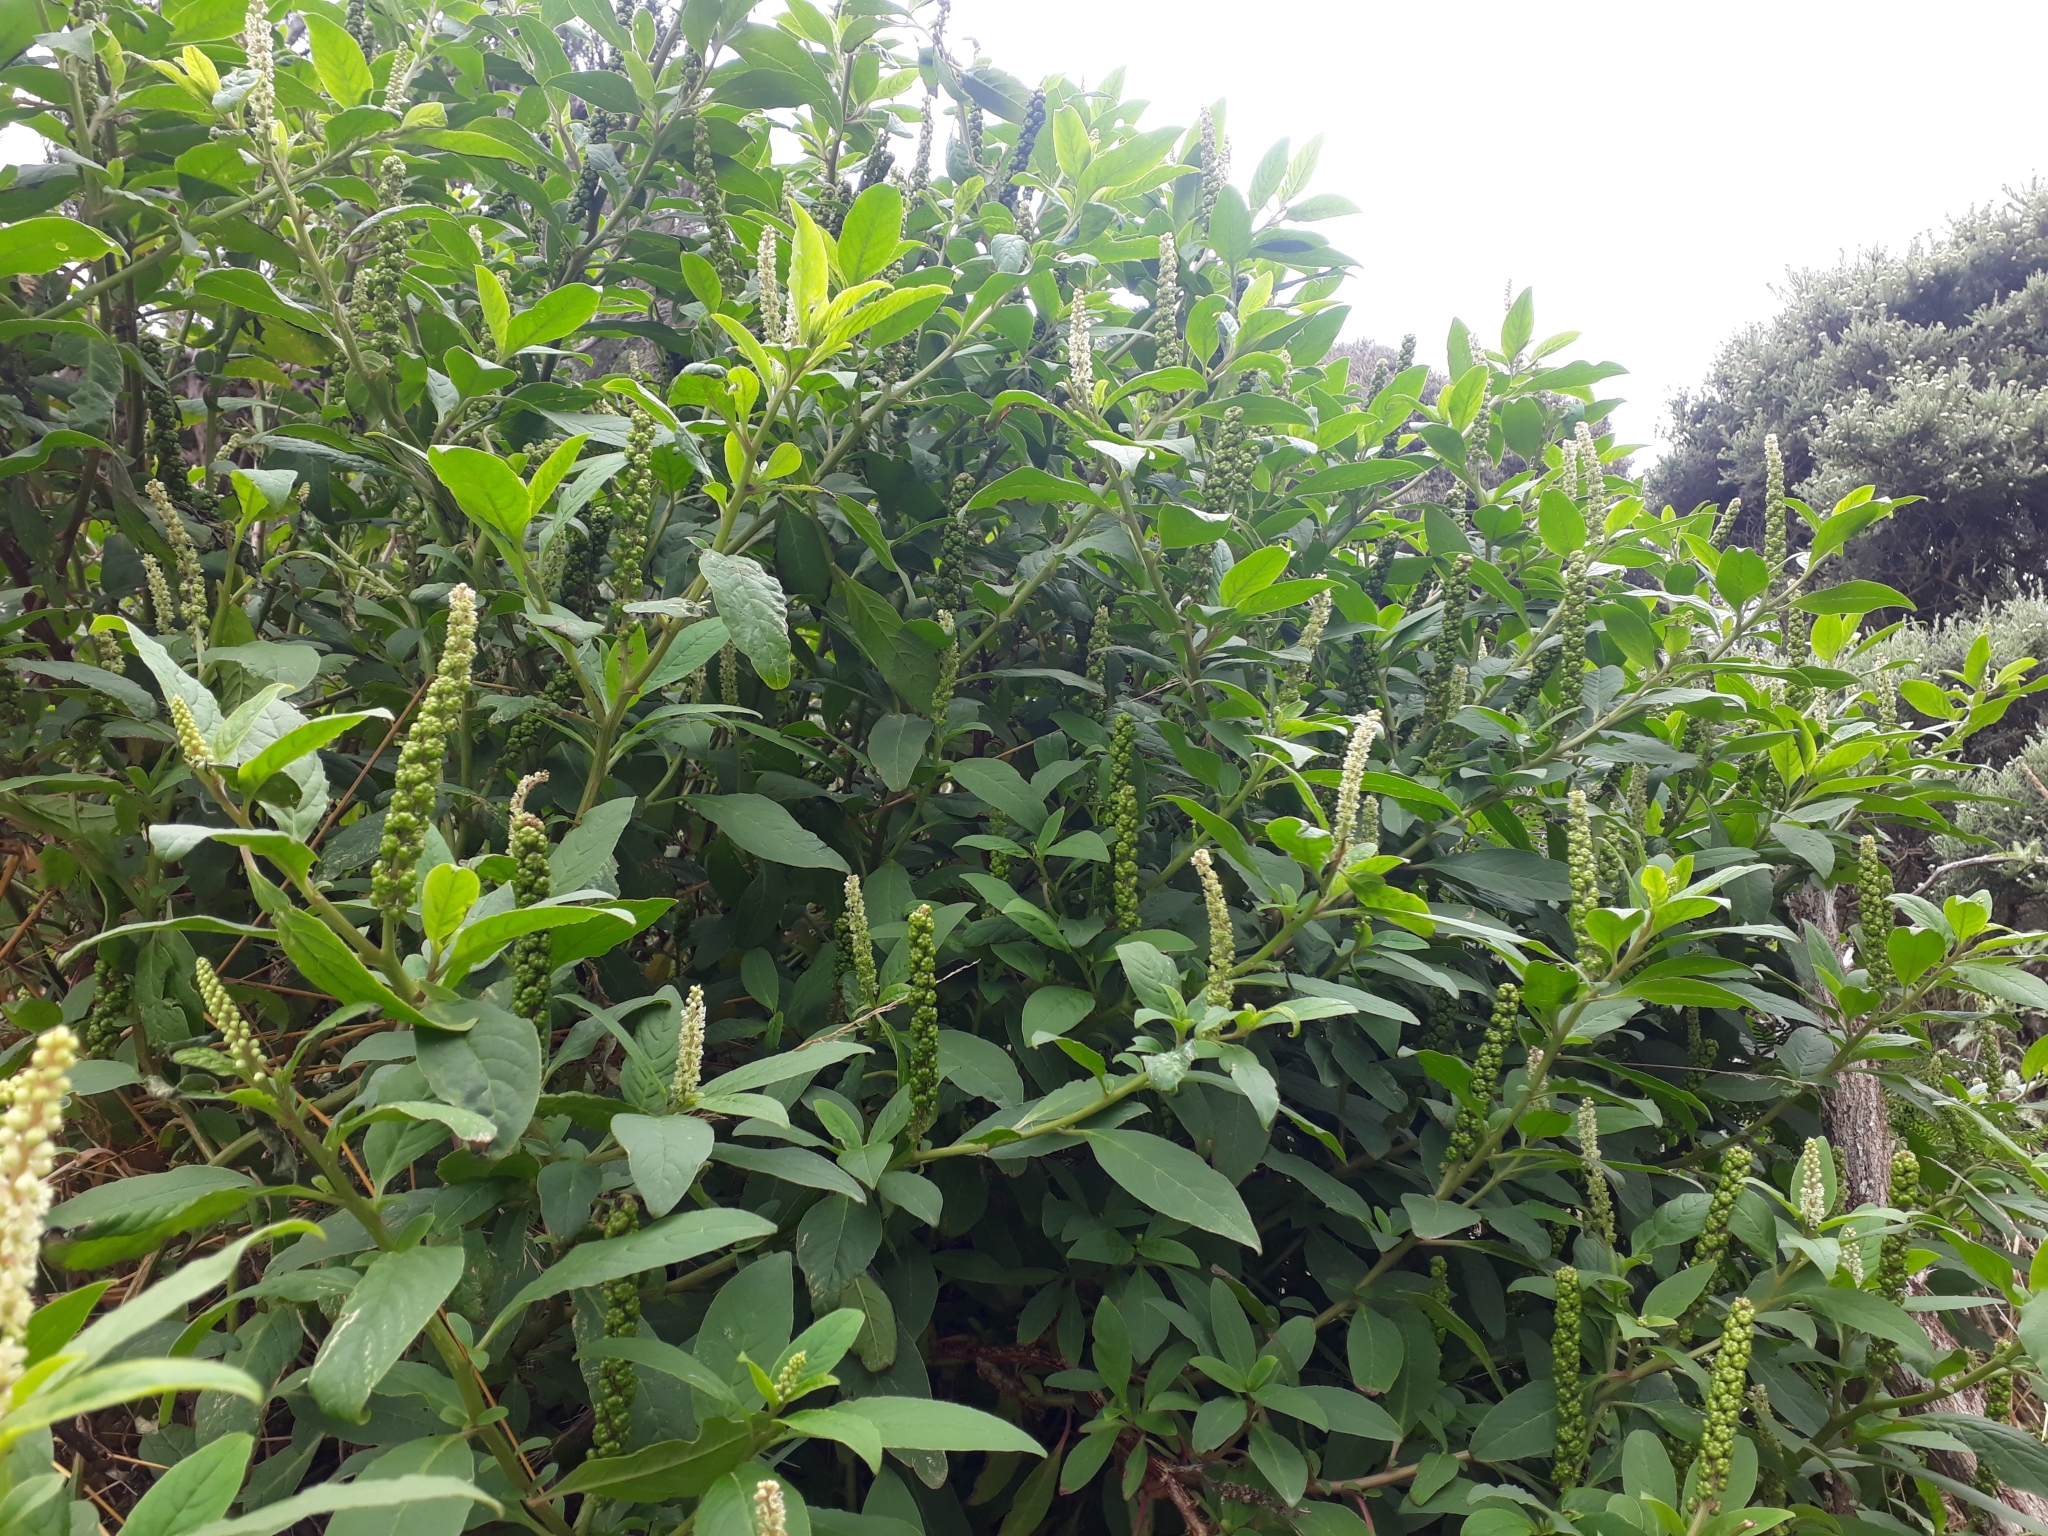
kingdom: Plantae
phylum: Tracheophyta
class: Magnoliopsida
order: Caryophyllales
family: Phytolaccaceae
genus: Phytolacca
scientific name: Phytolacca icosandra
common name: Button pokeweed
